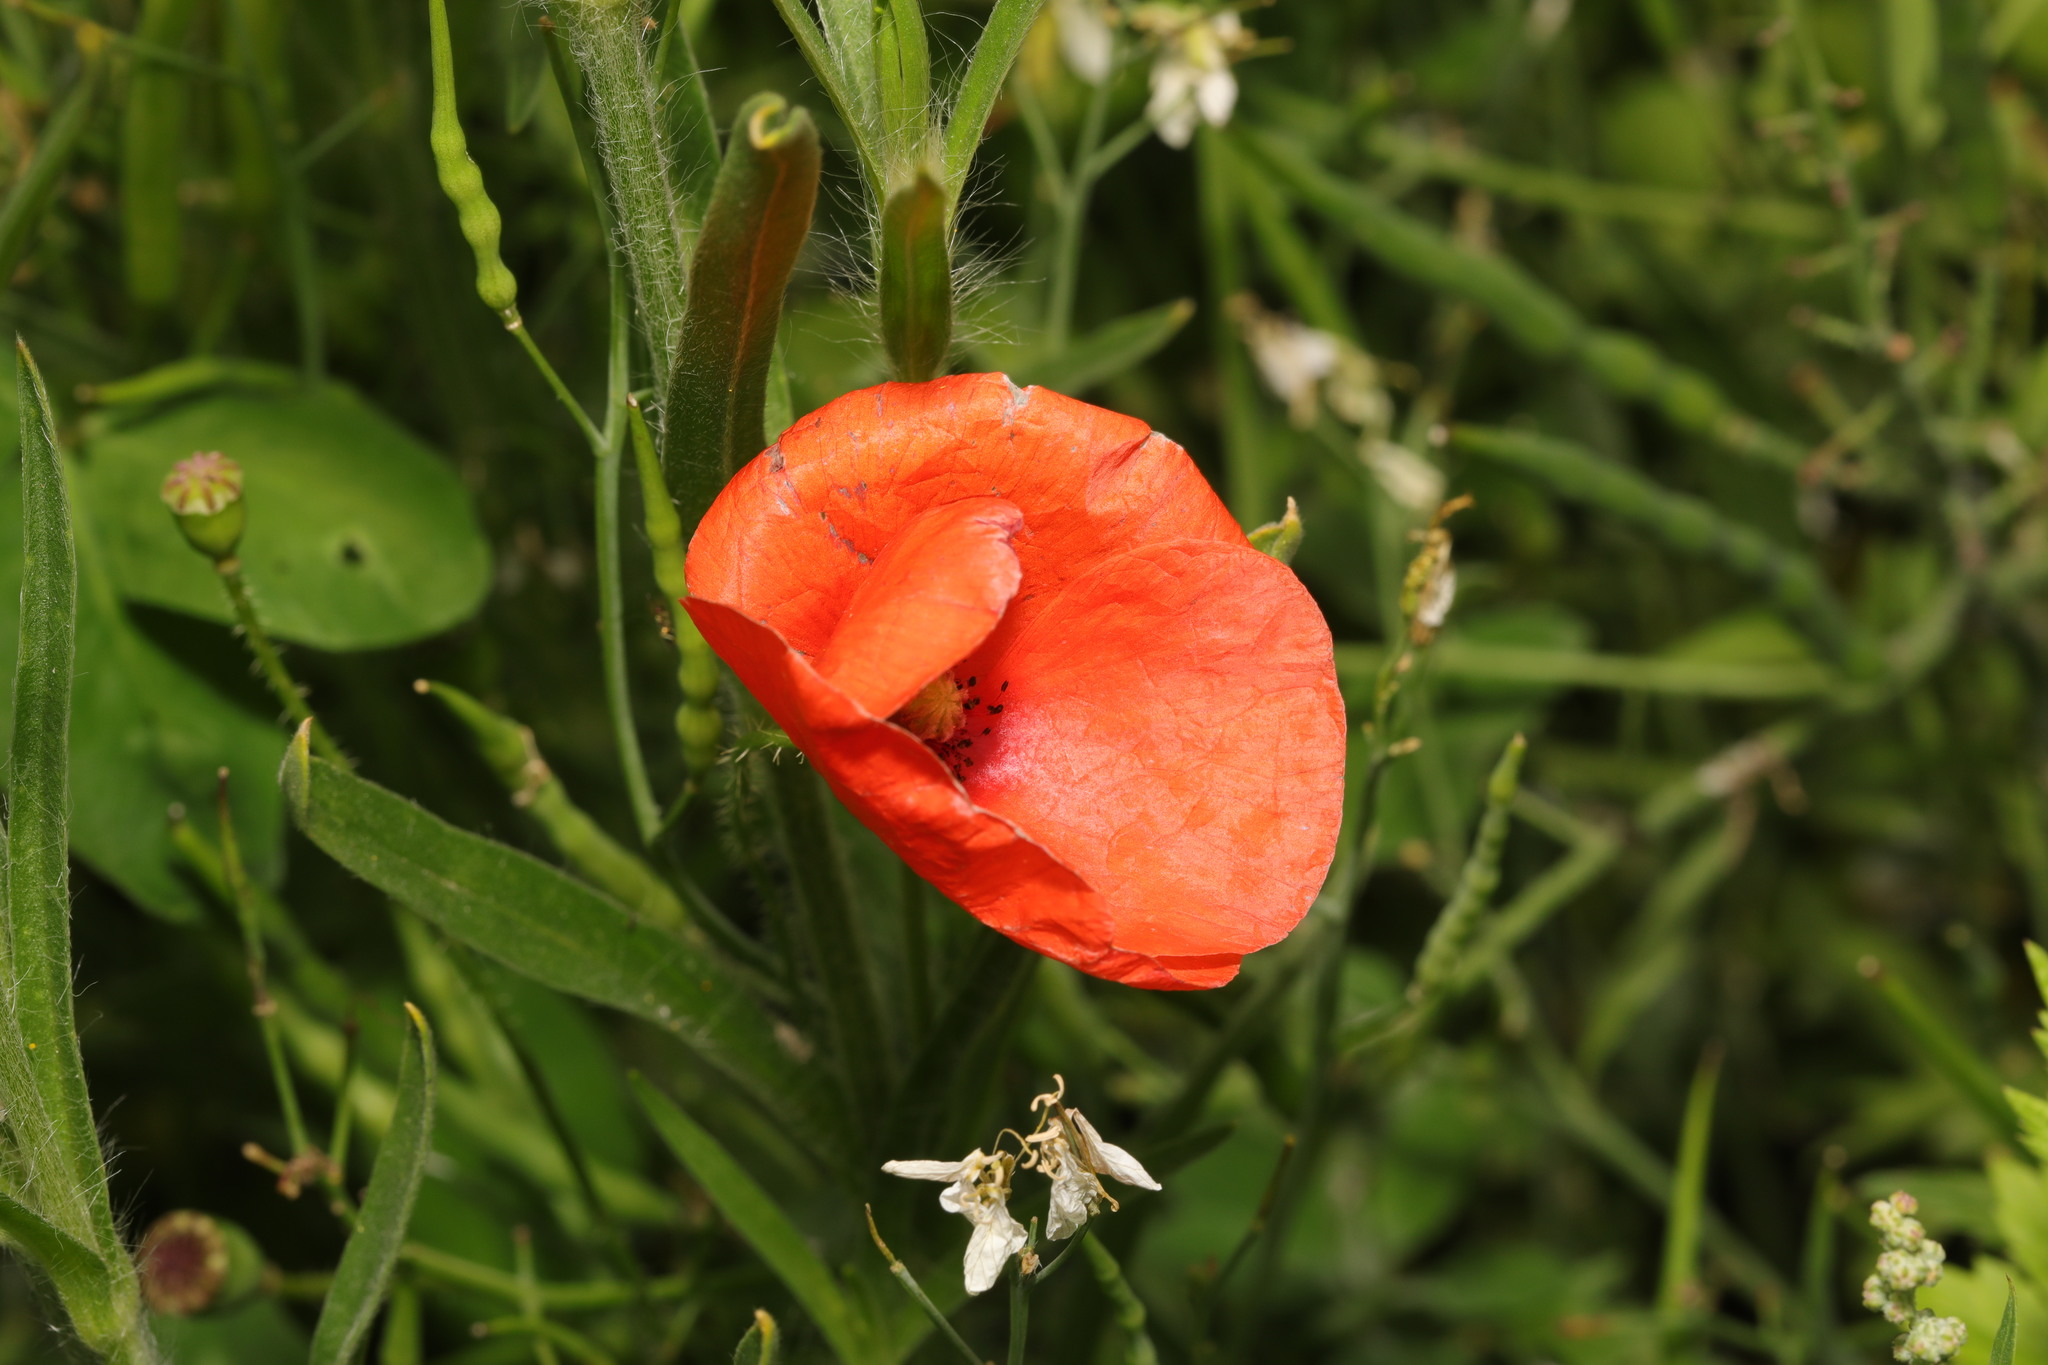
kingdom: Plantae
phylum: Tracheophyta
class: Magnoliopsida
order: Ranunculales
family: Papaveraceae
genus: Papaver
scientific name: Papaver rhoeas
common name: Corn poppy
